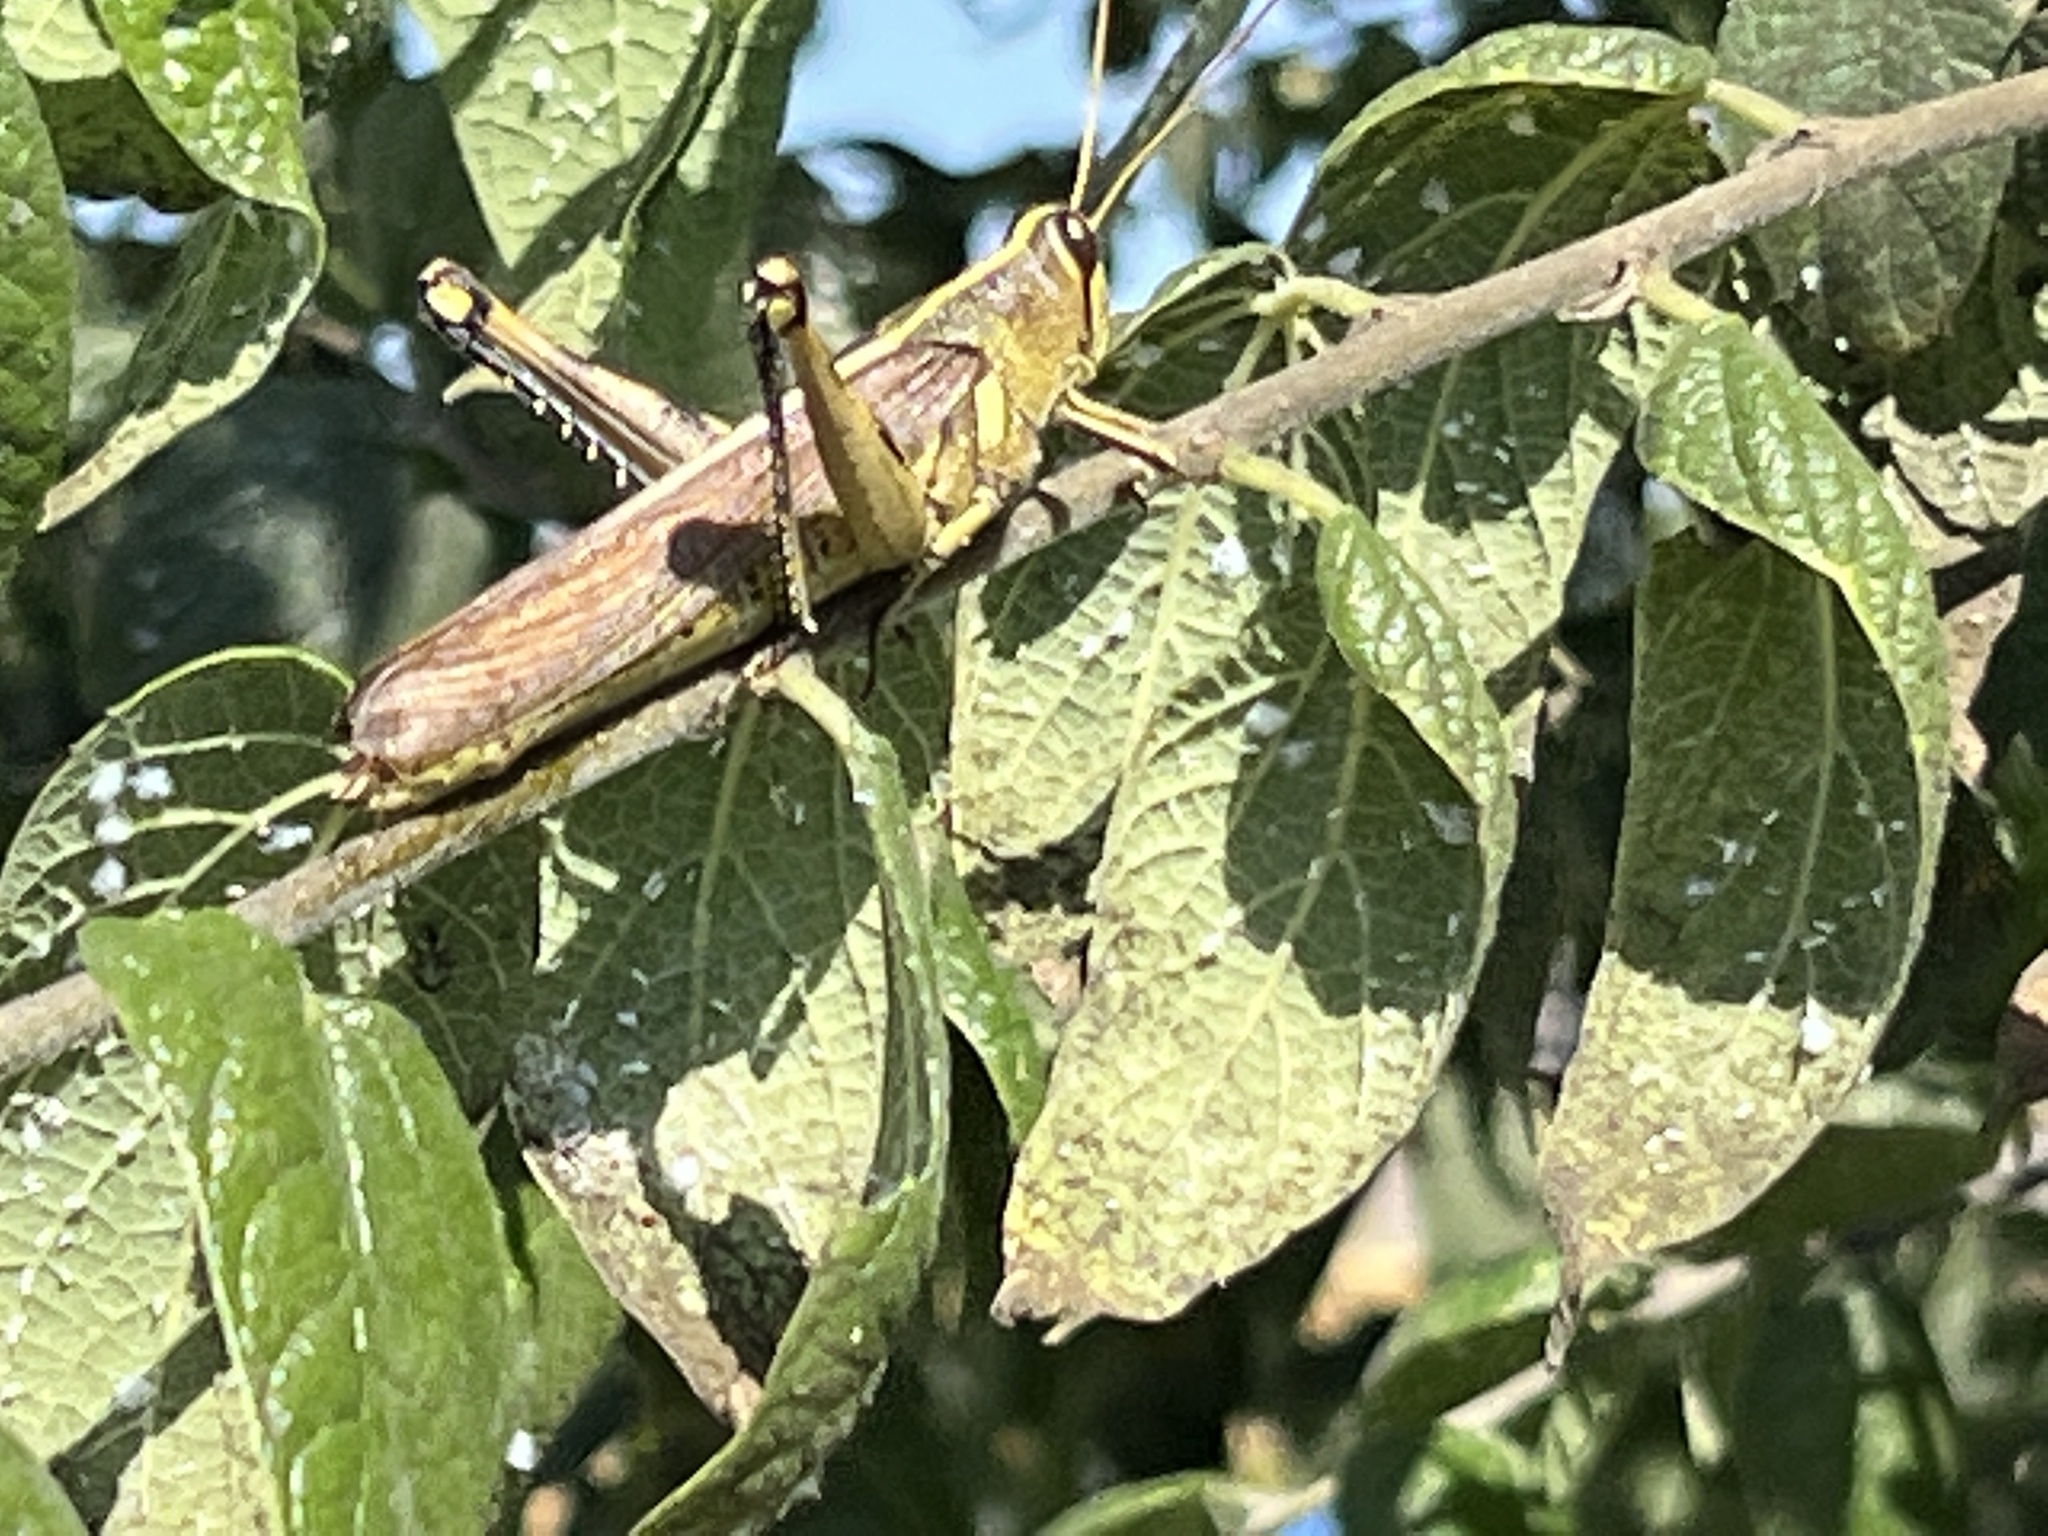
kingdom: Animalia
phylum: Arthropoda
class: Insecta
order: Orthoptera
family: Acrididae
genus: Schistocerca
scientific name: Schistocerca obscura
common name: Obscure bird grasshopper
